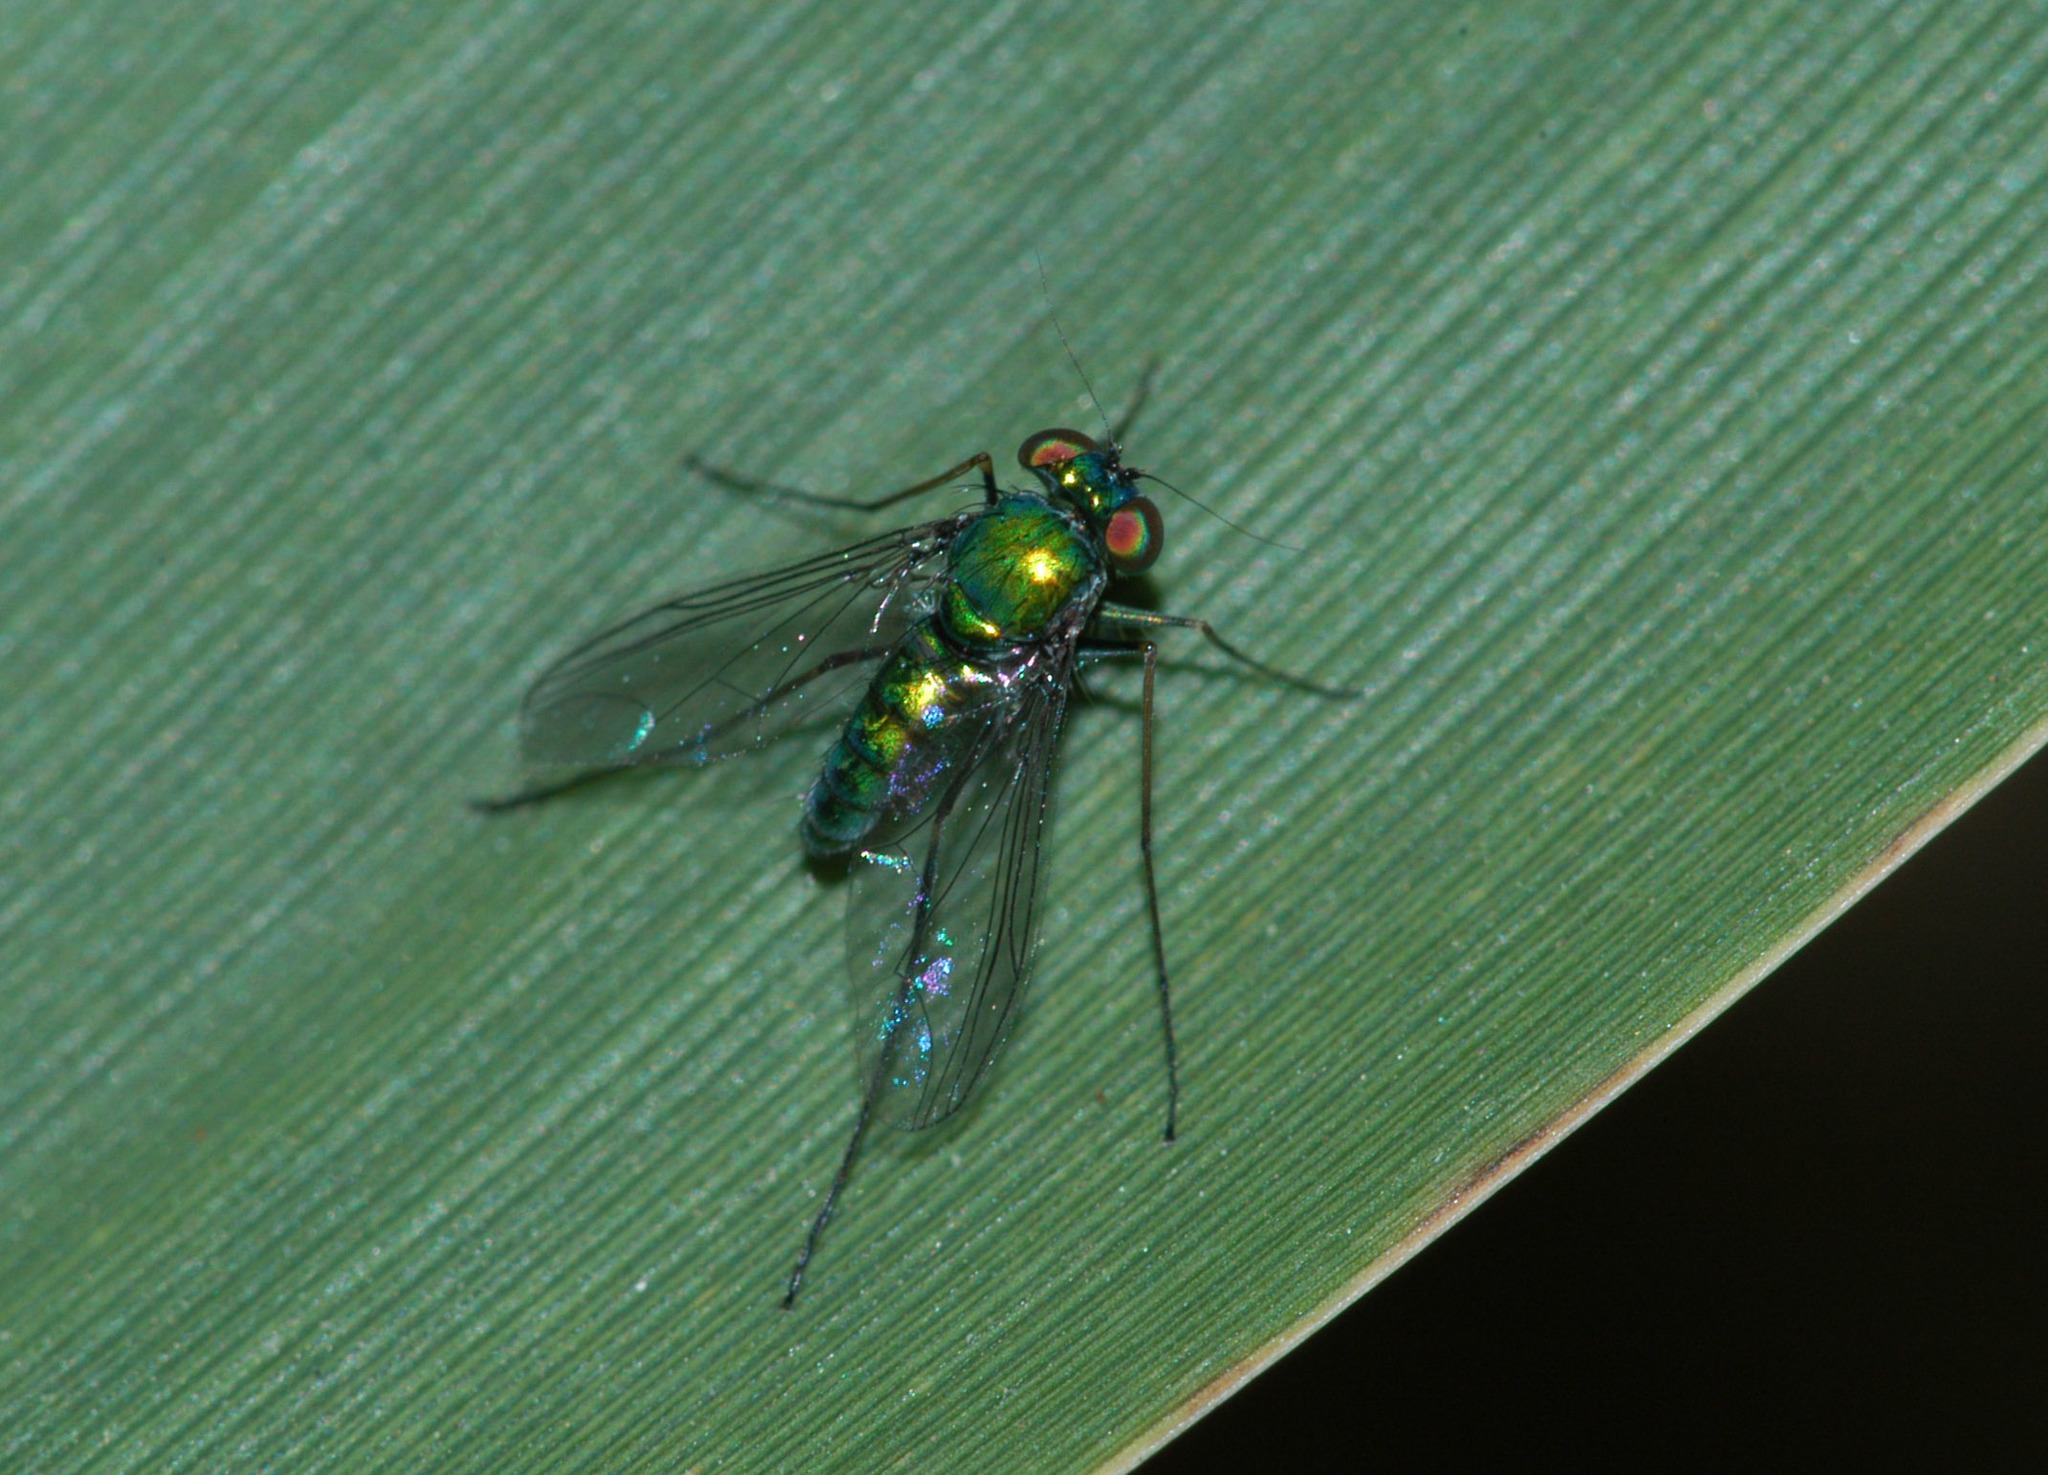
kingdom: Animalia
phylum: Arthropoda
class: Insecta
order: Diptera
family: Dolichopodidae
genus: Parentia
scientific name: Parentia dispar
